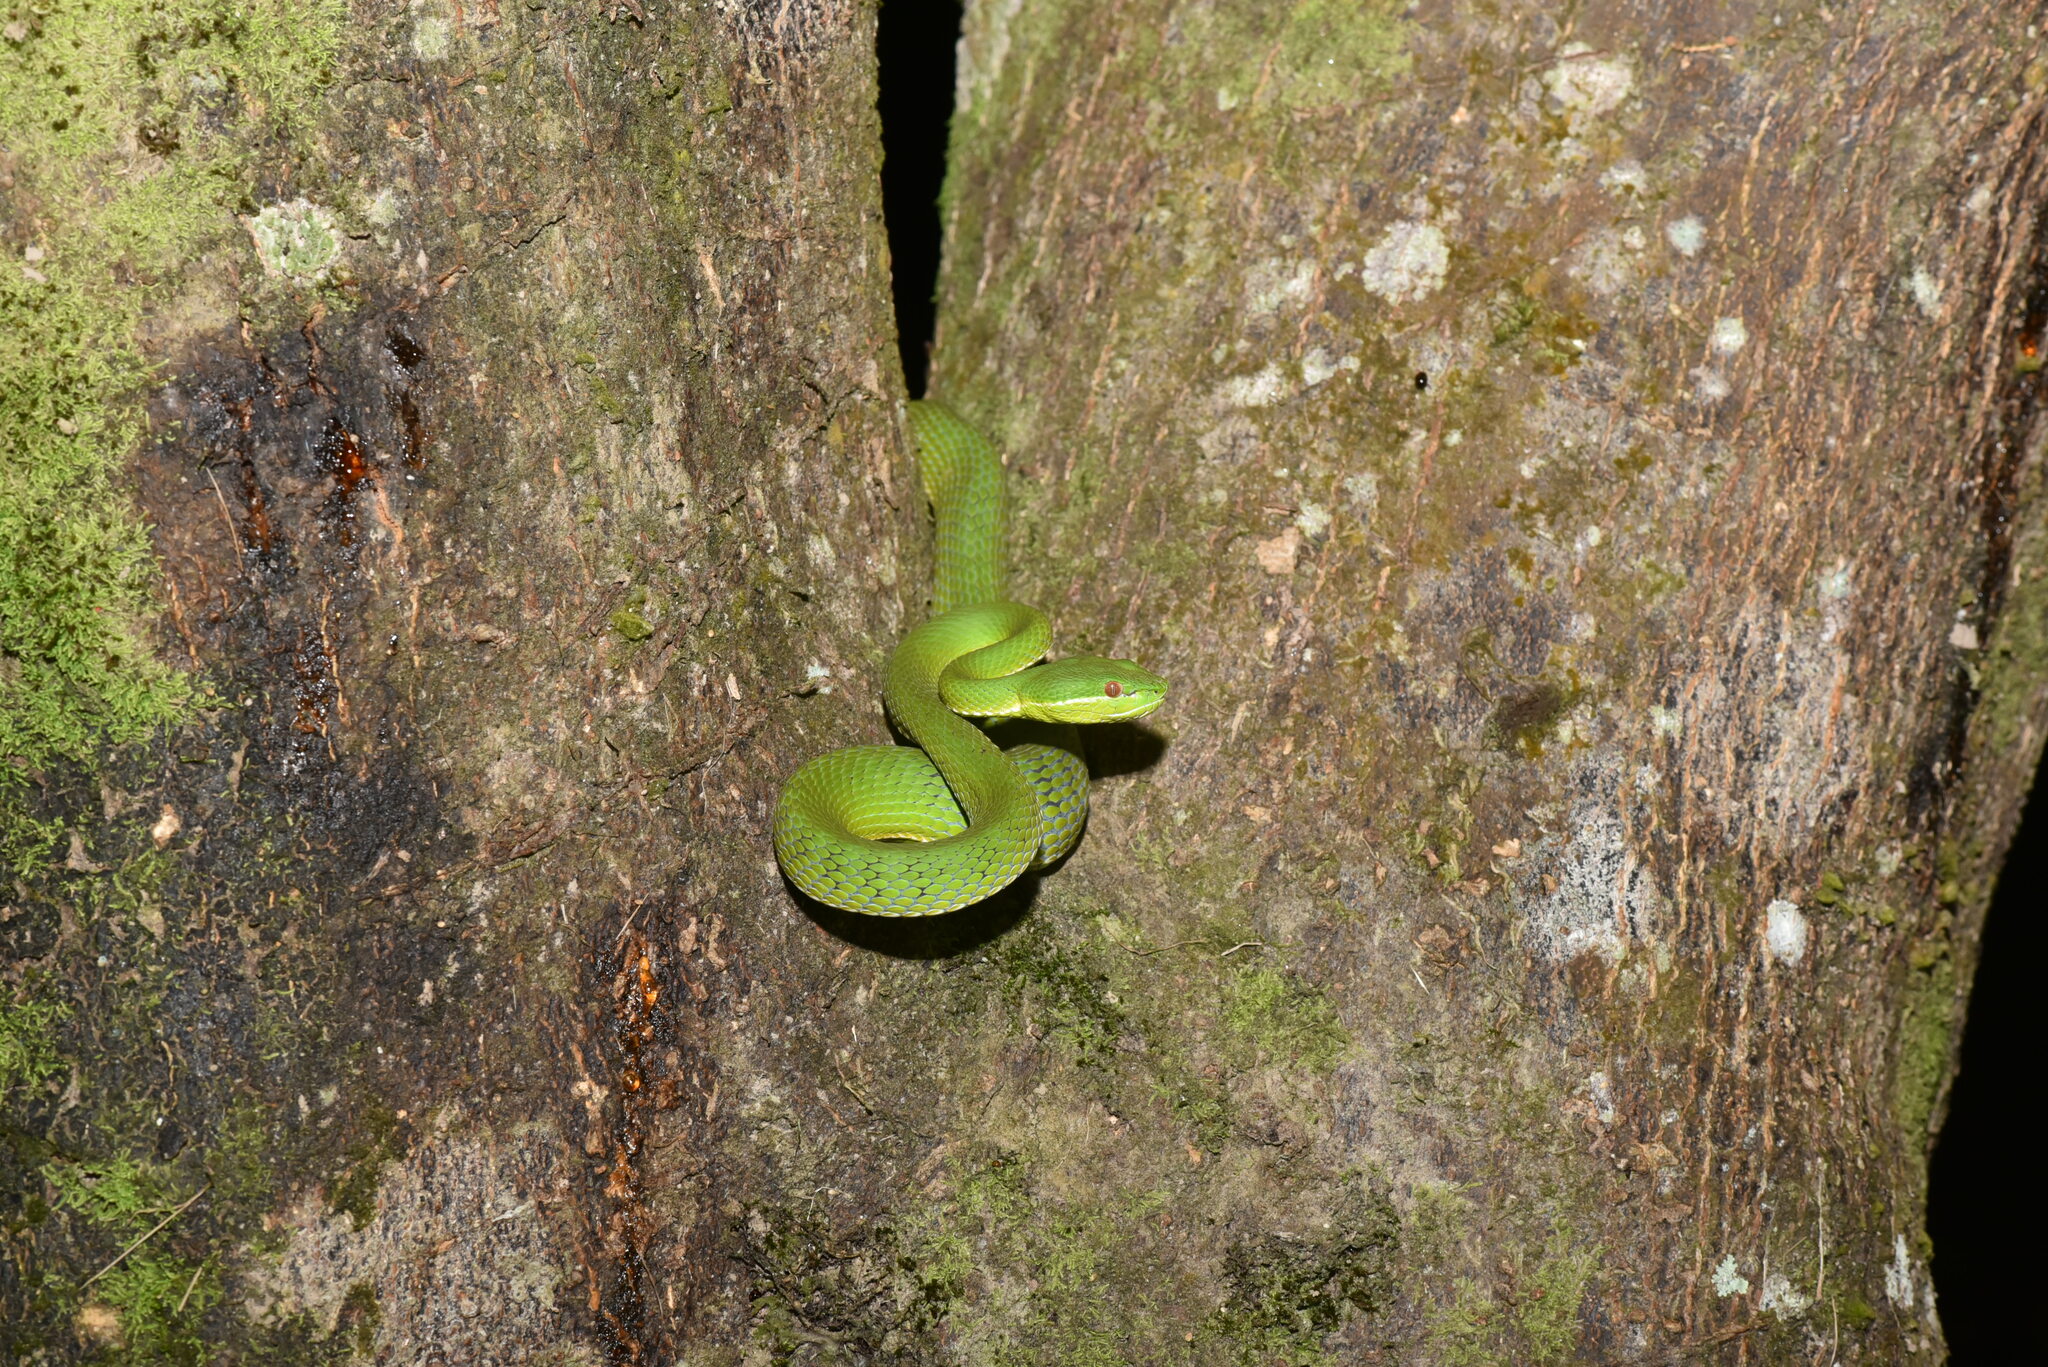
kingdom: Animalia
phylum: Chordata
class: Squamata
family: Viperidae
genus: Trimeresurus
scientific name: Trimeresurus stejnegeri
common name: Chen’s bamboo pit viper
